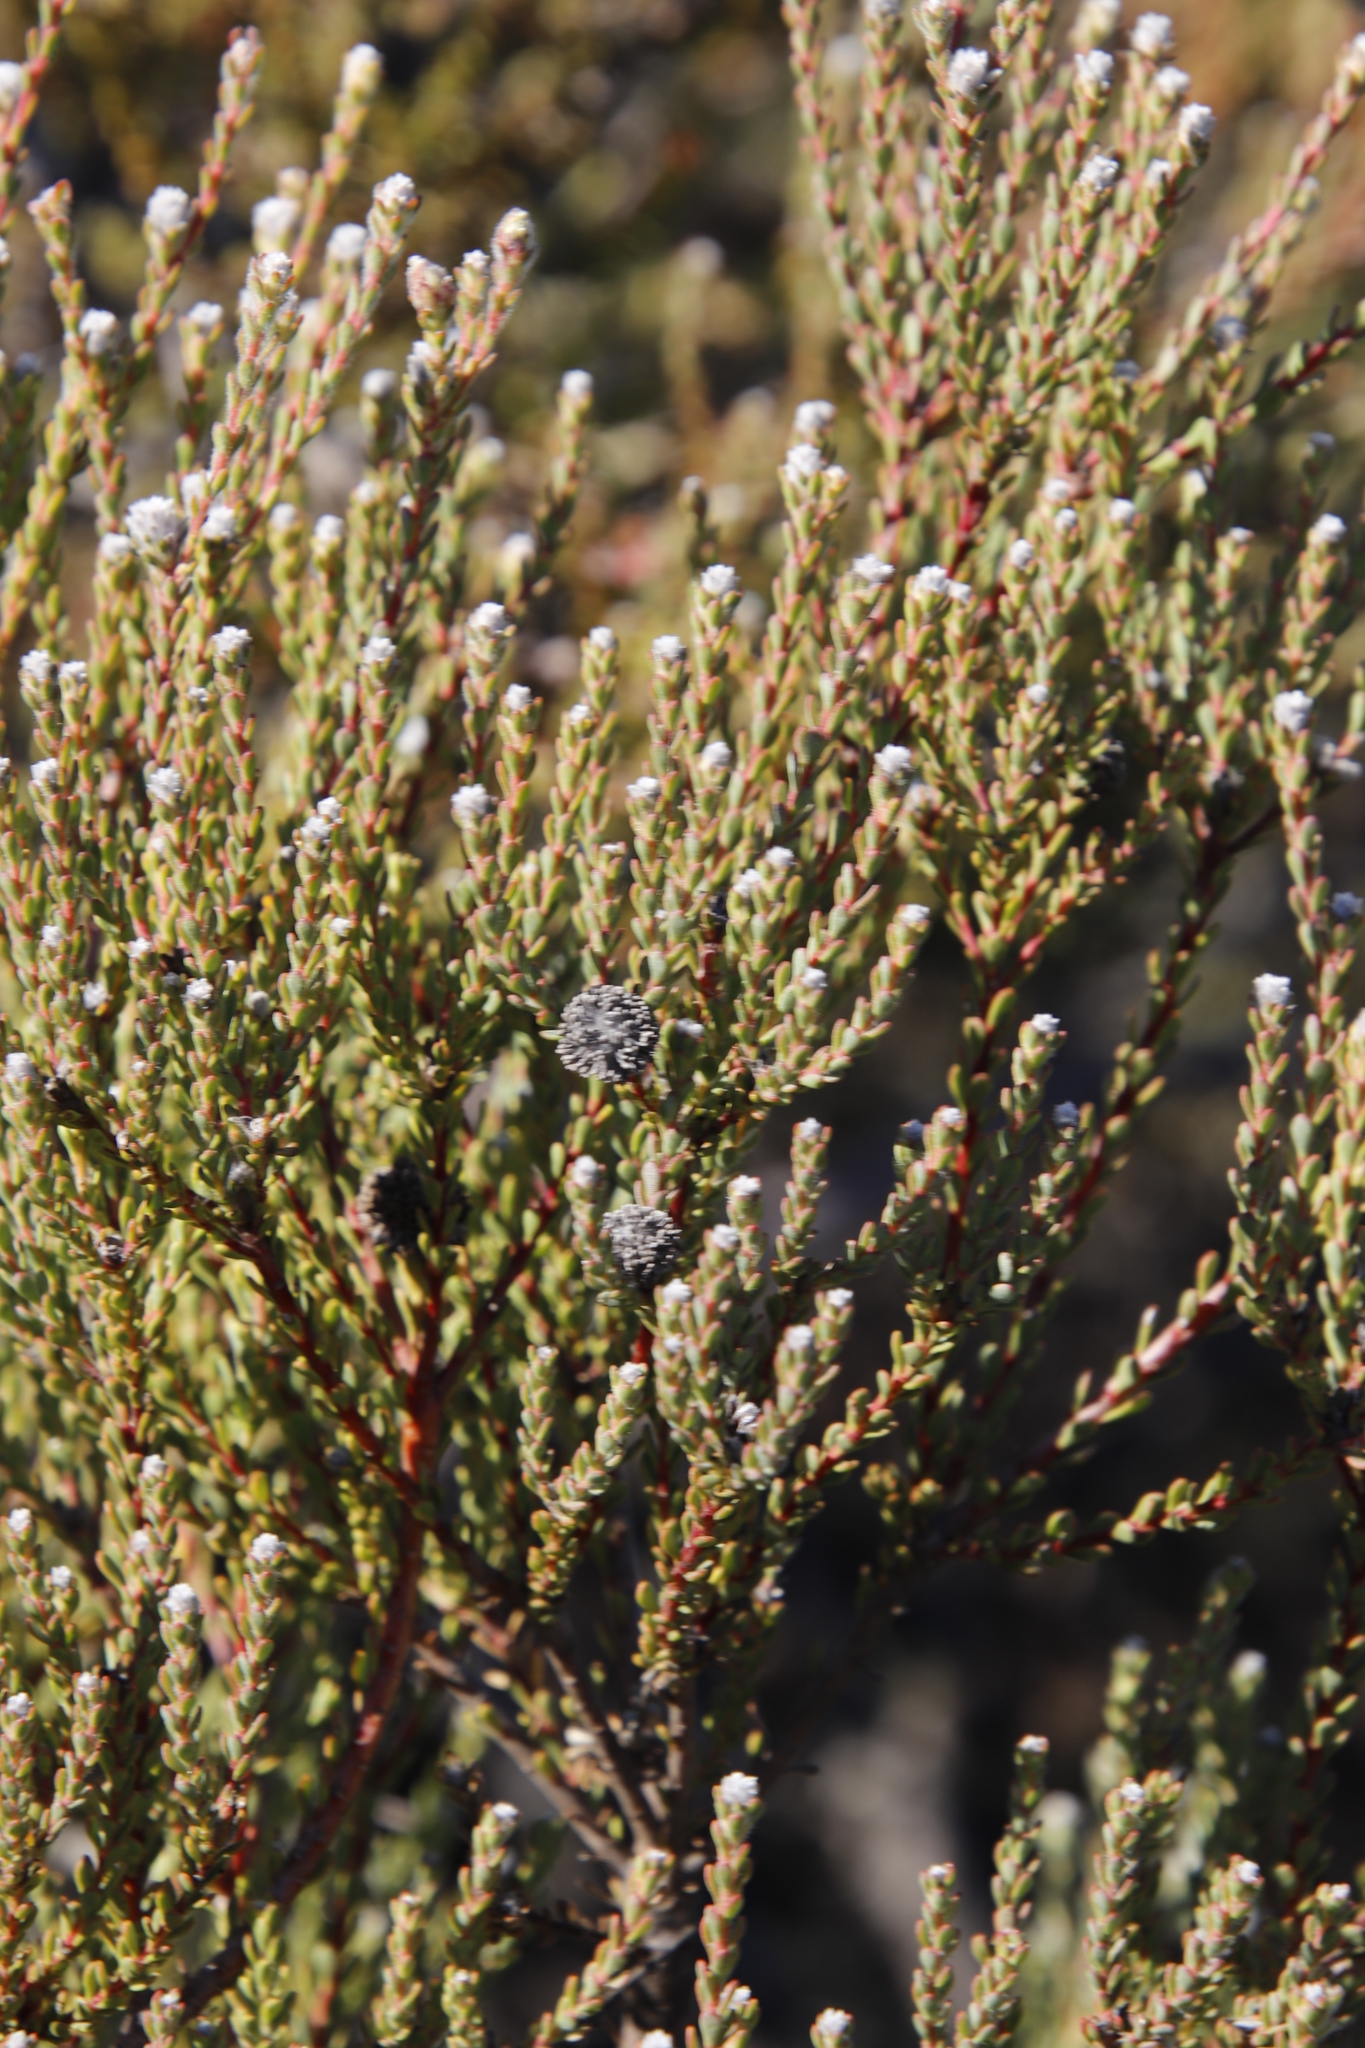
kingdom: Plantae
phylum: Tracheophyta
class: Magnoliopsida
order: Proteales
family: Proteaceae
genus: Leucadendron
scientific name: Leucadendron levisanus
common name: Cape flats conebush
